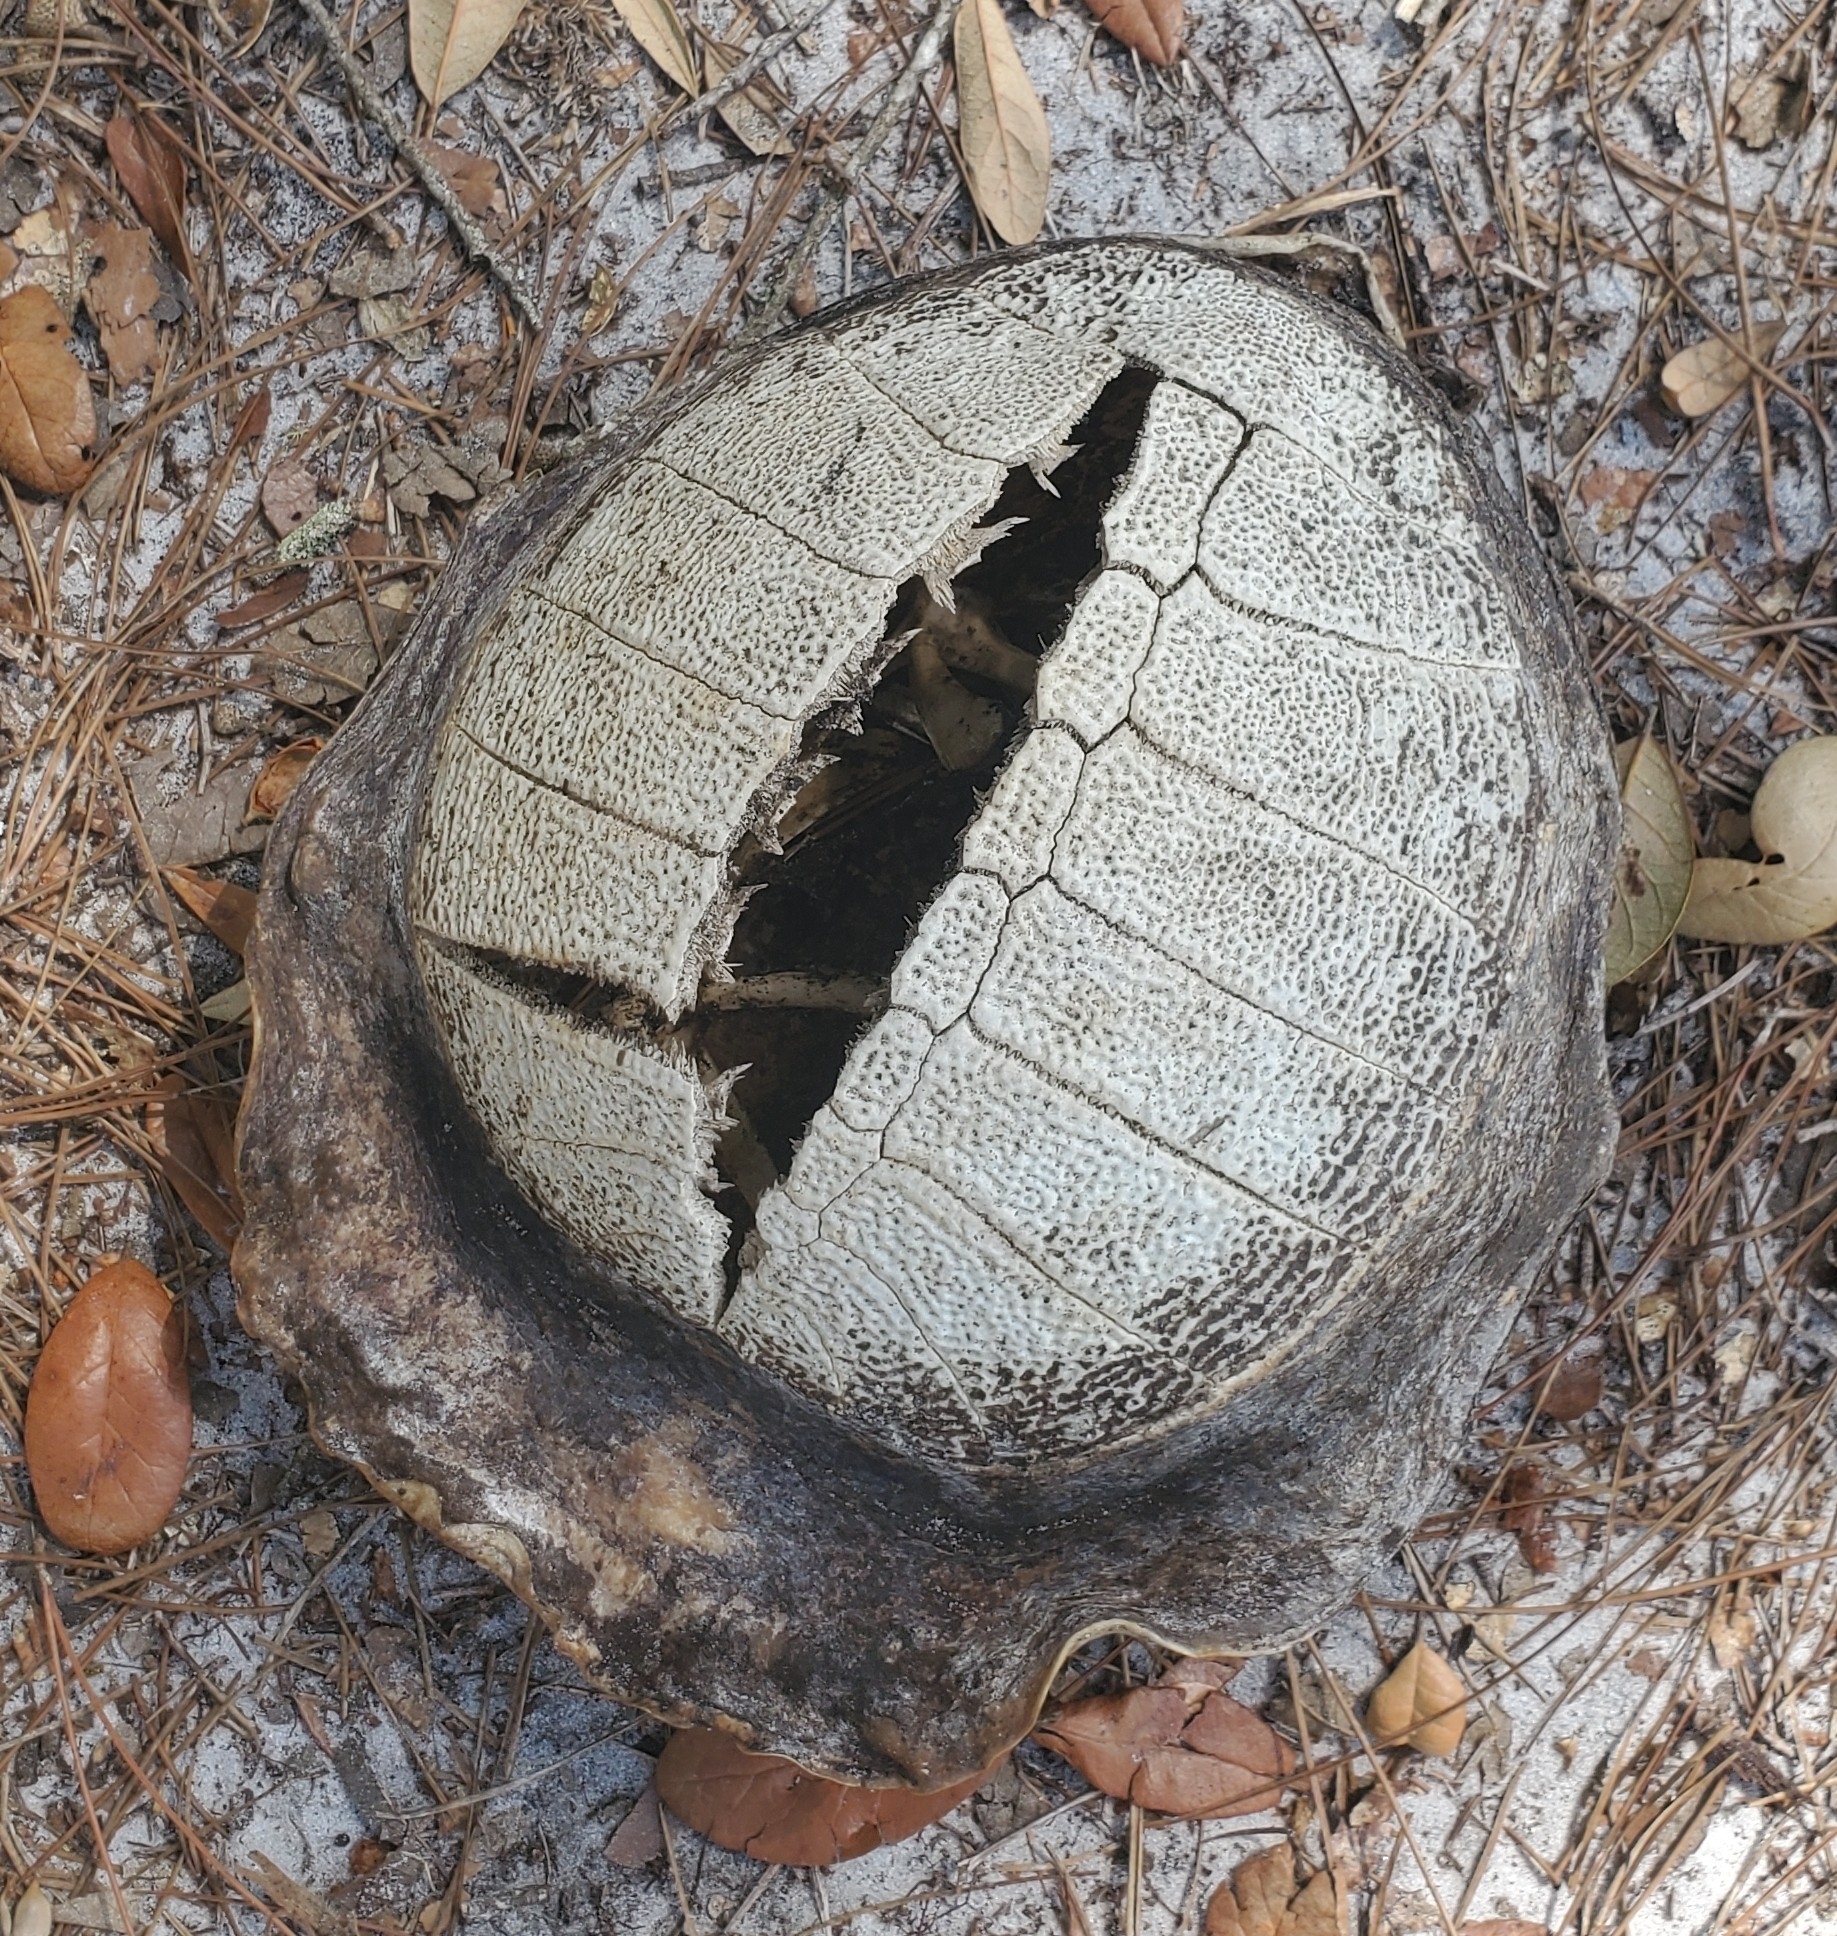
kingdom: Animalia
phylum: Chordata
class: Testudines
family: Trionychidae
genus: Apalone
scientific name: Apalone ferox
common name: Florida softshell turtle
